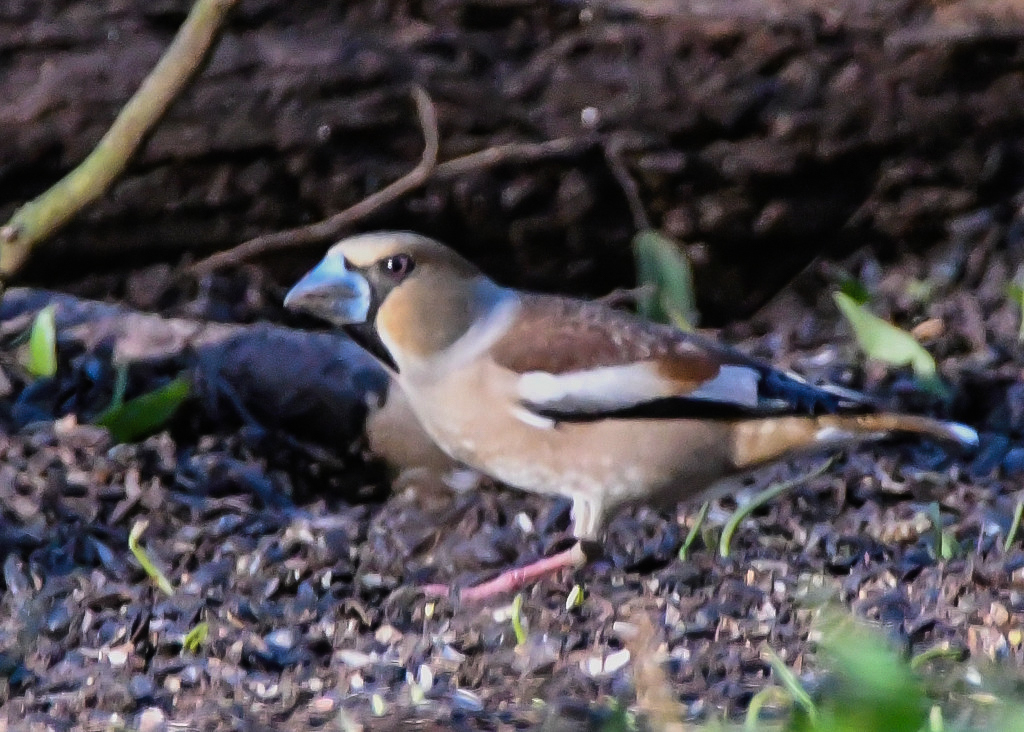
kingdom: Animalia
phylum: Chordata
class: Aves
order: Passeriformes
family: Fringillidae
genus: Coccothraustes
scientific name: Coccothraustes coccothraustes
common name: Hawfinch
